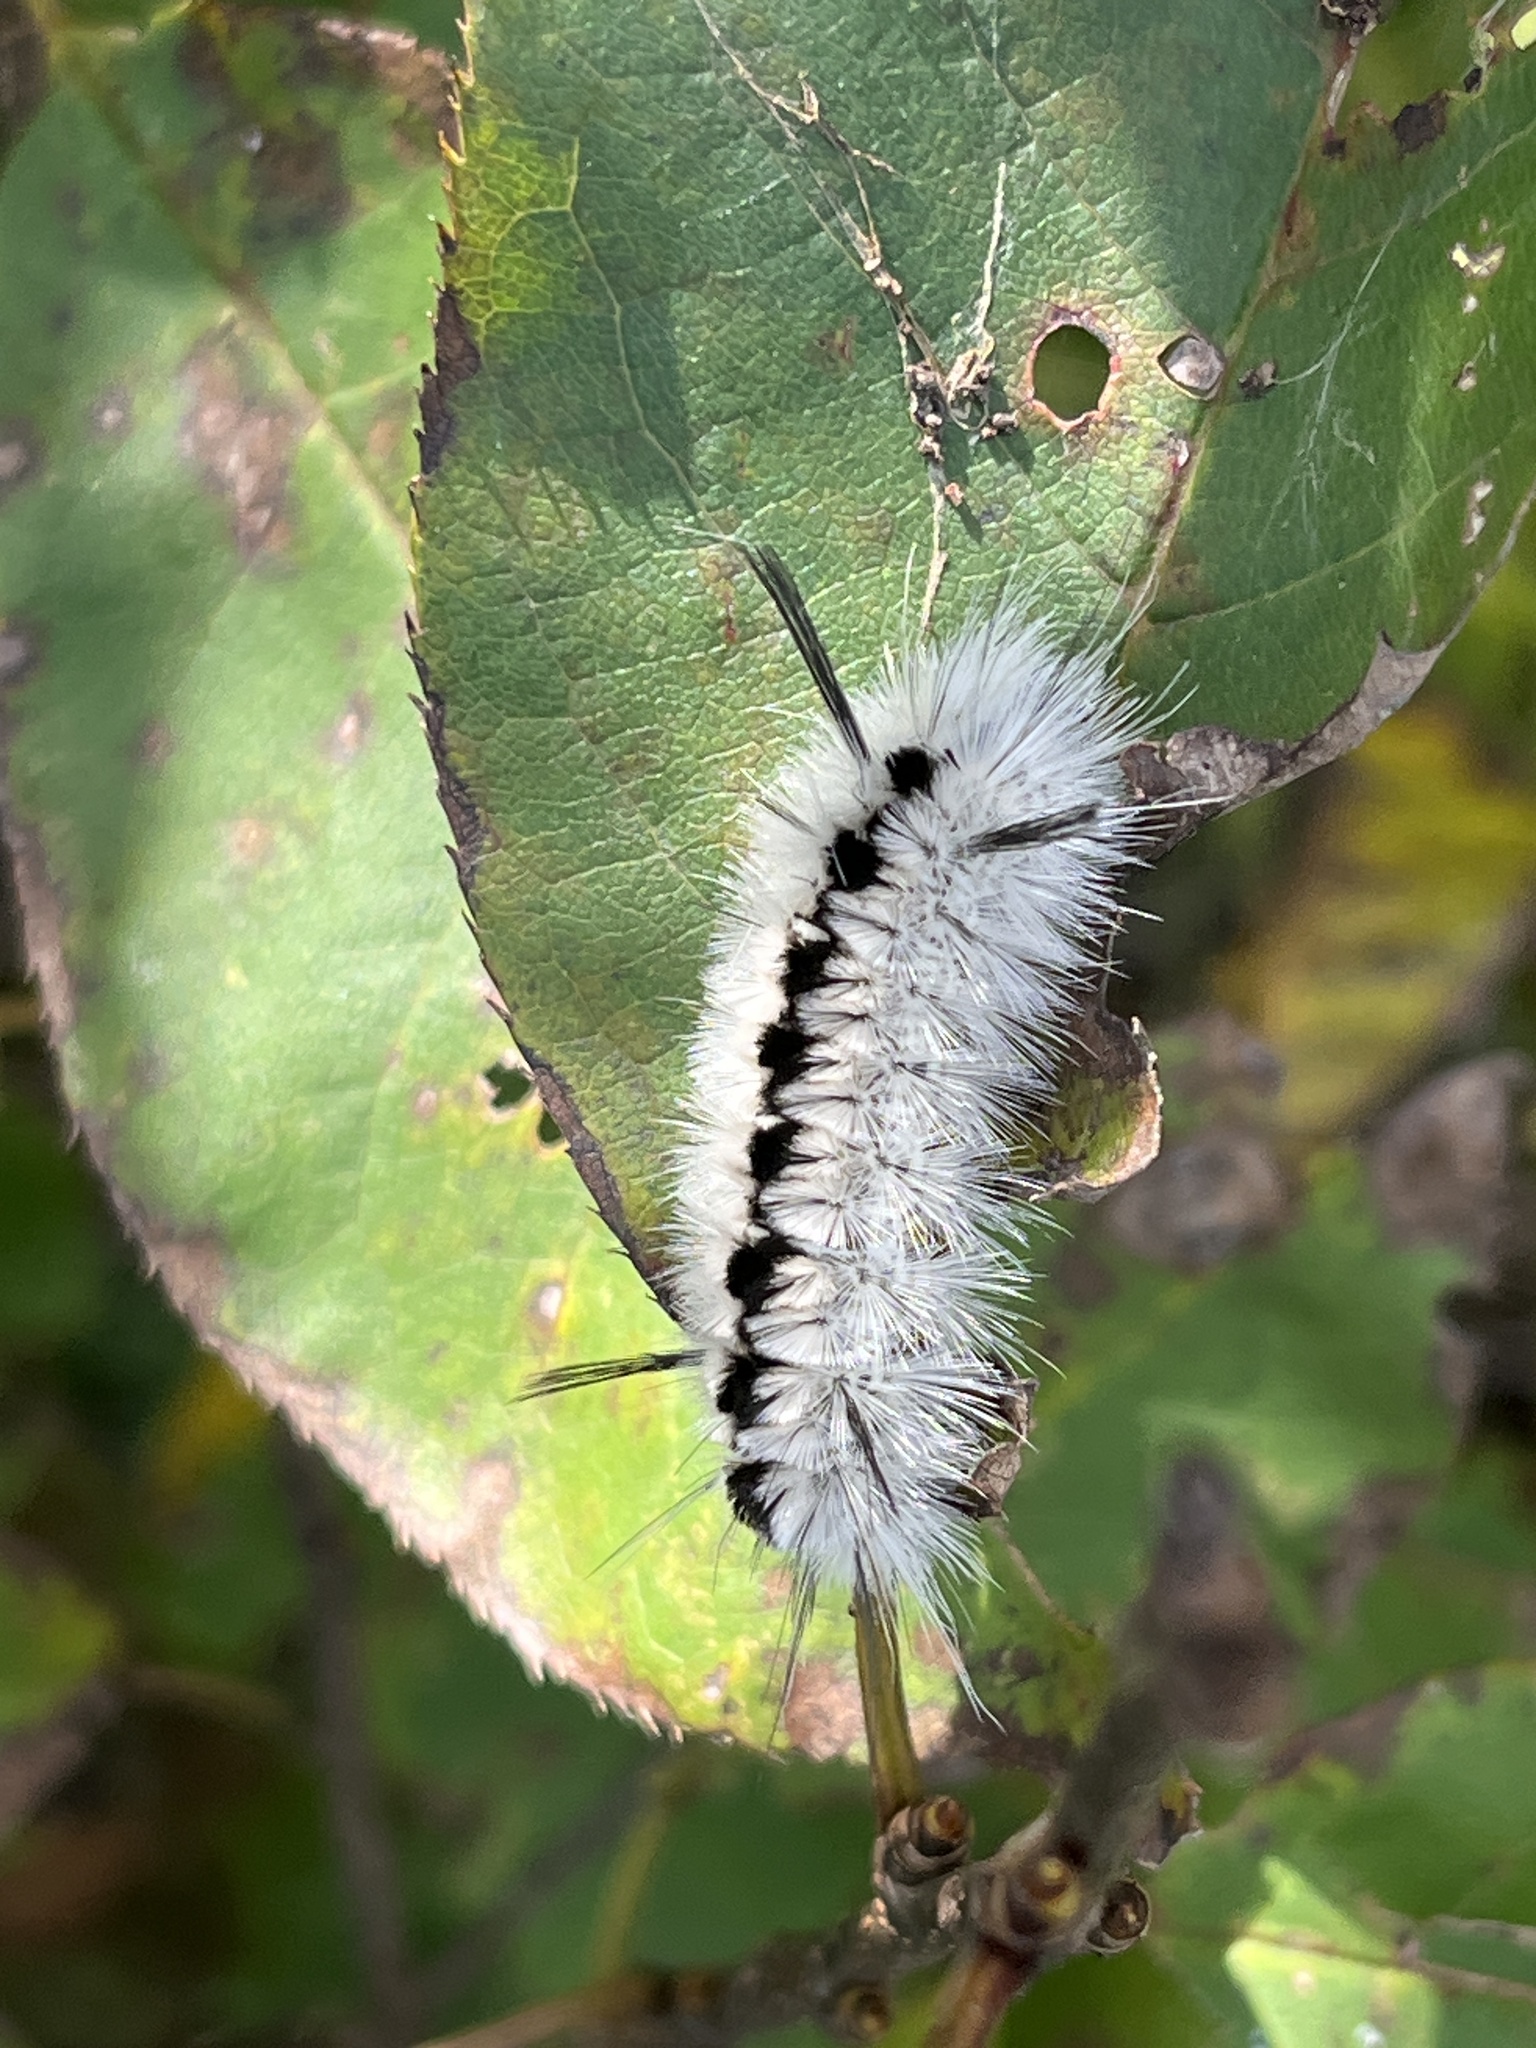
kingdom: Animalia
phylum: Arthropoda
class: Insecta
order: Lepidoptera
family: Erebidae
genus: Lophocampa
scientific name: Lophocampa caryae
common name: Hickory tussock moth
